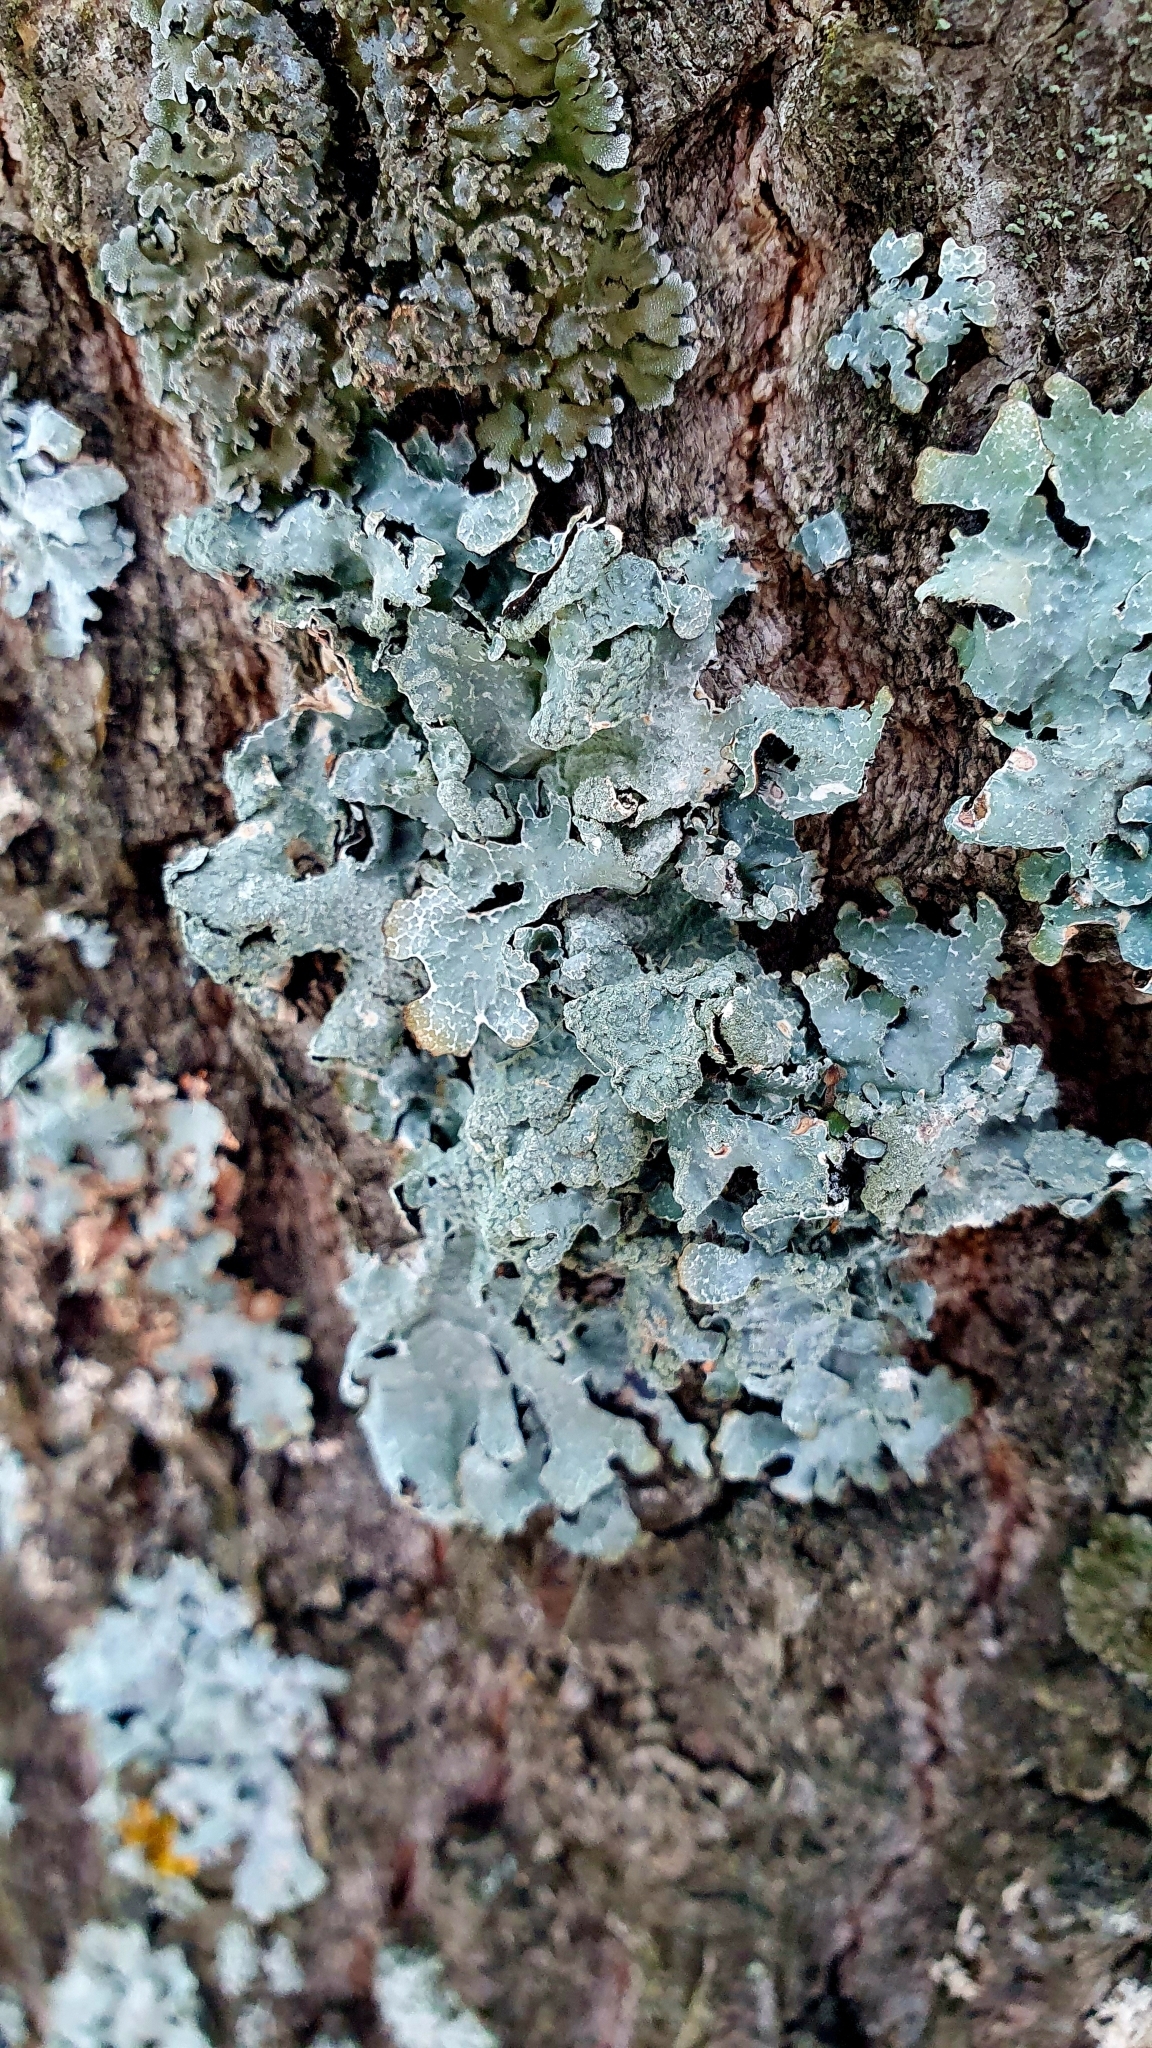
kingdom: Fungi
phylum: Ascomycota
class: Lecanoromycetes
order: Lecanorales
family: Parmeliaceae
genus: Parmelia
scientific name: Parmelia sulcata
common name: Netted shield lichen
